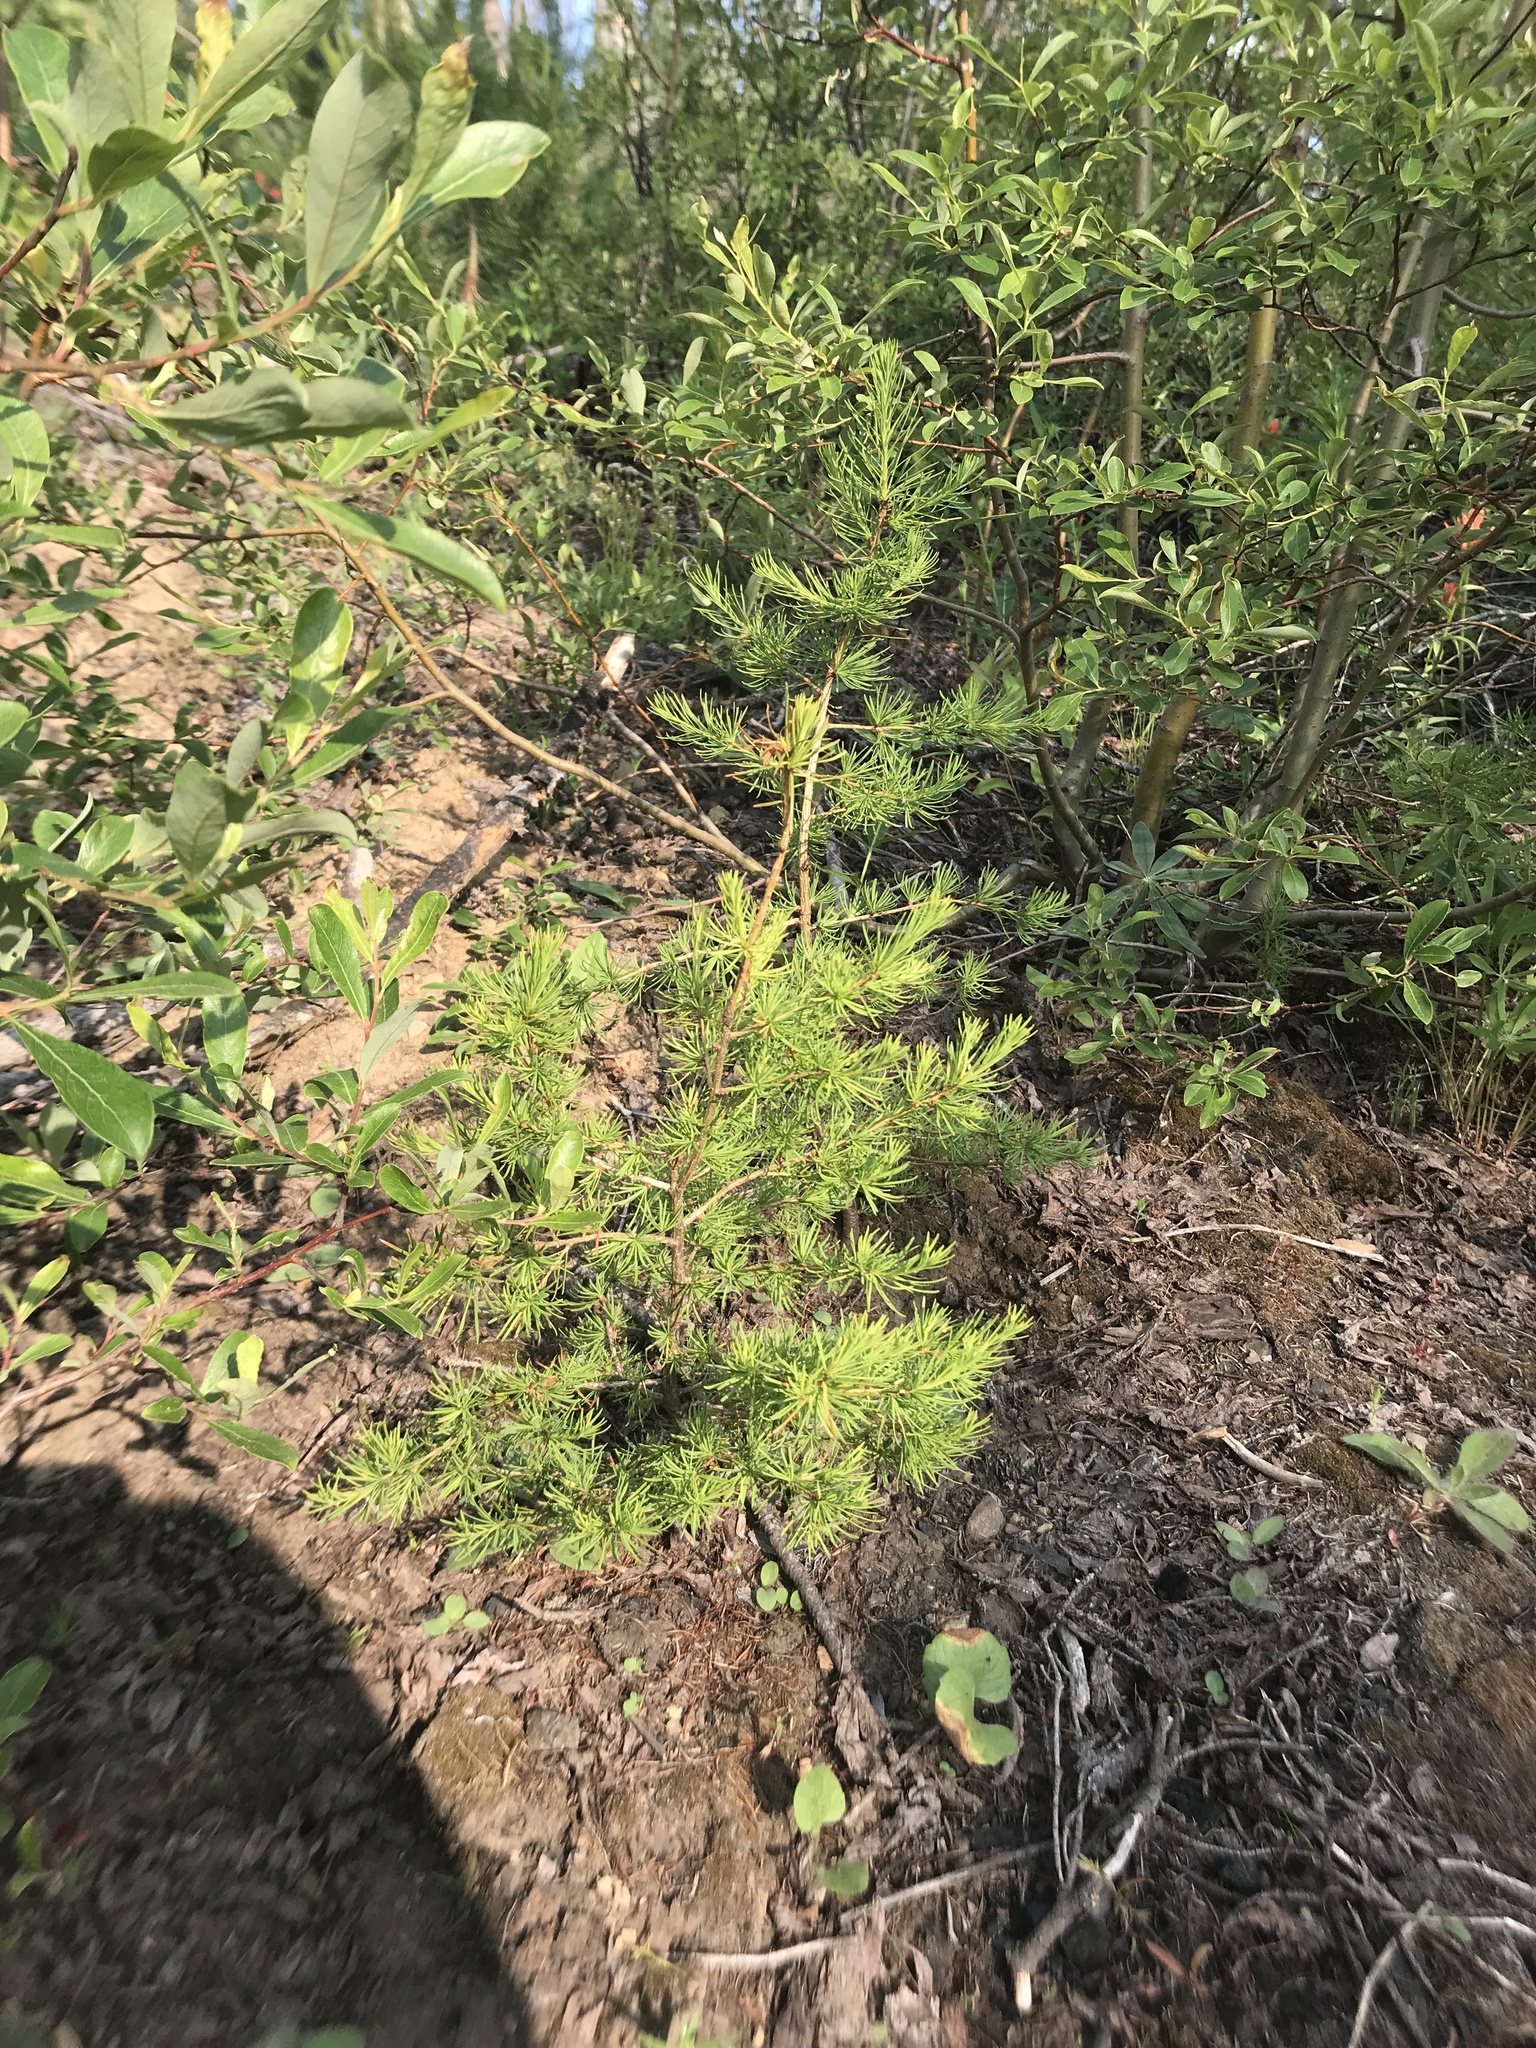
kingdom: Plantae
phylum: Tracheophyta
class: Pinopsida
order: Pinales
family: Pinaceae
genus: Larix
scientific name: Larix occidentalis
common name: Western larch
